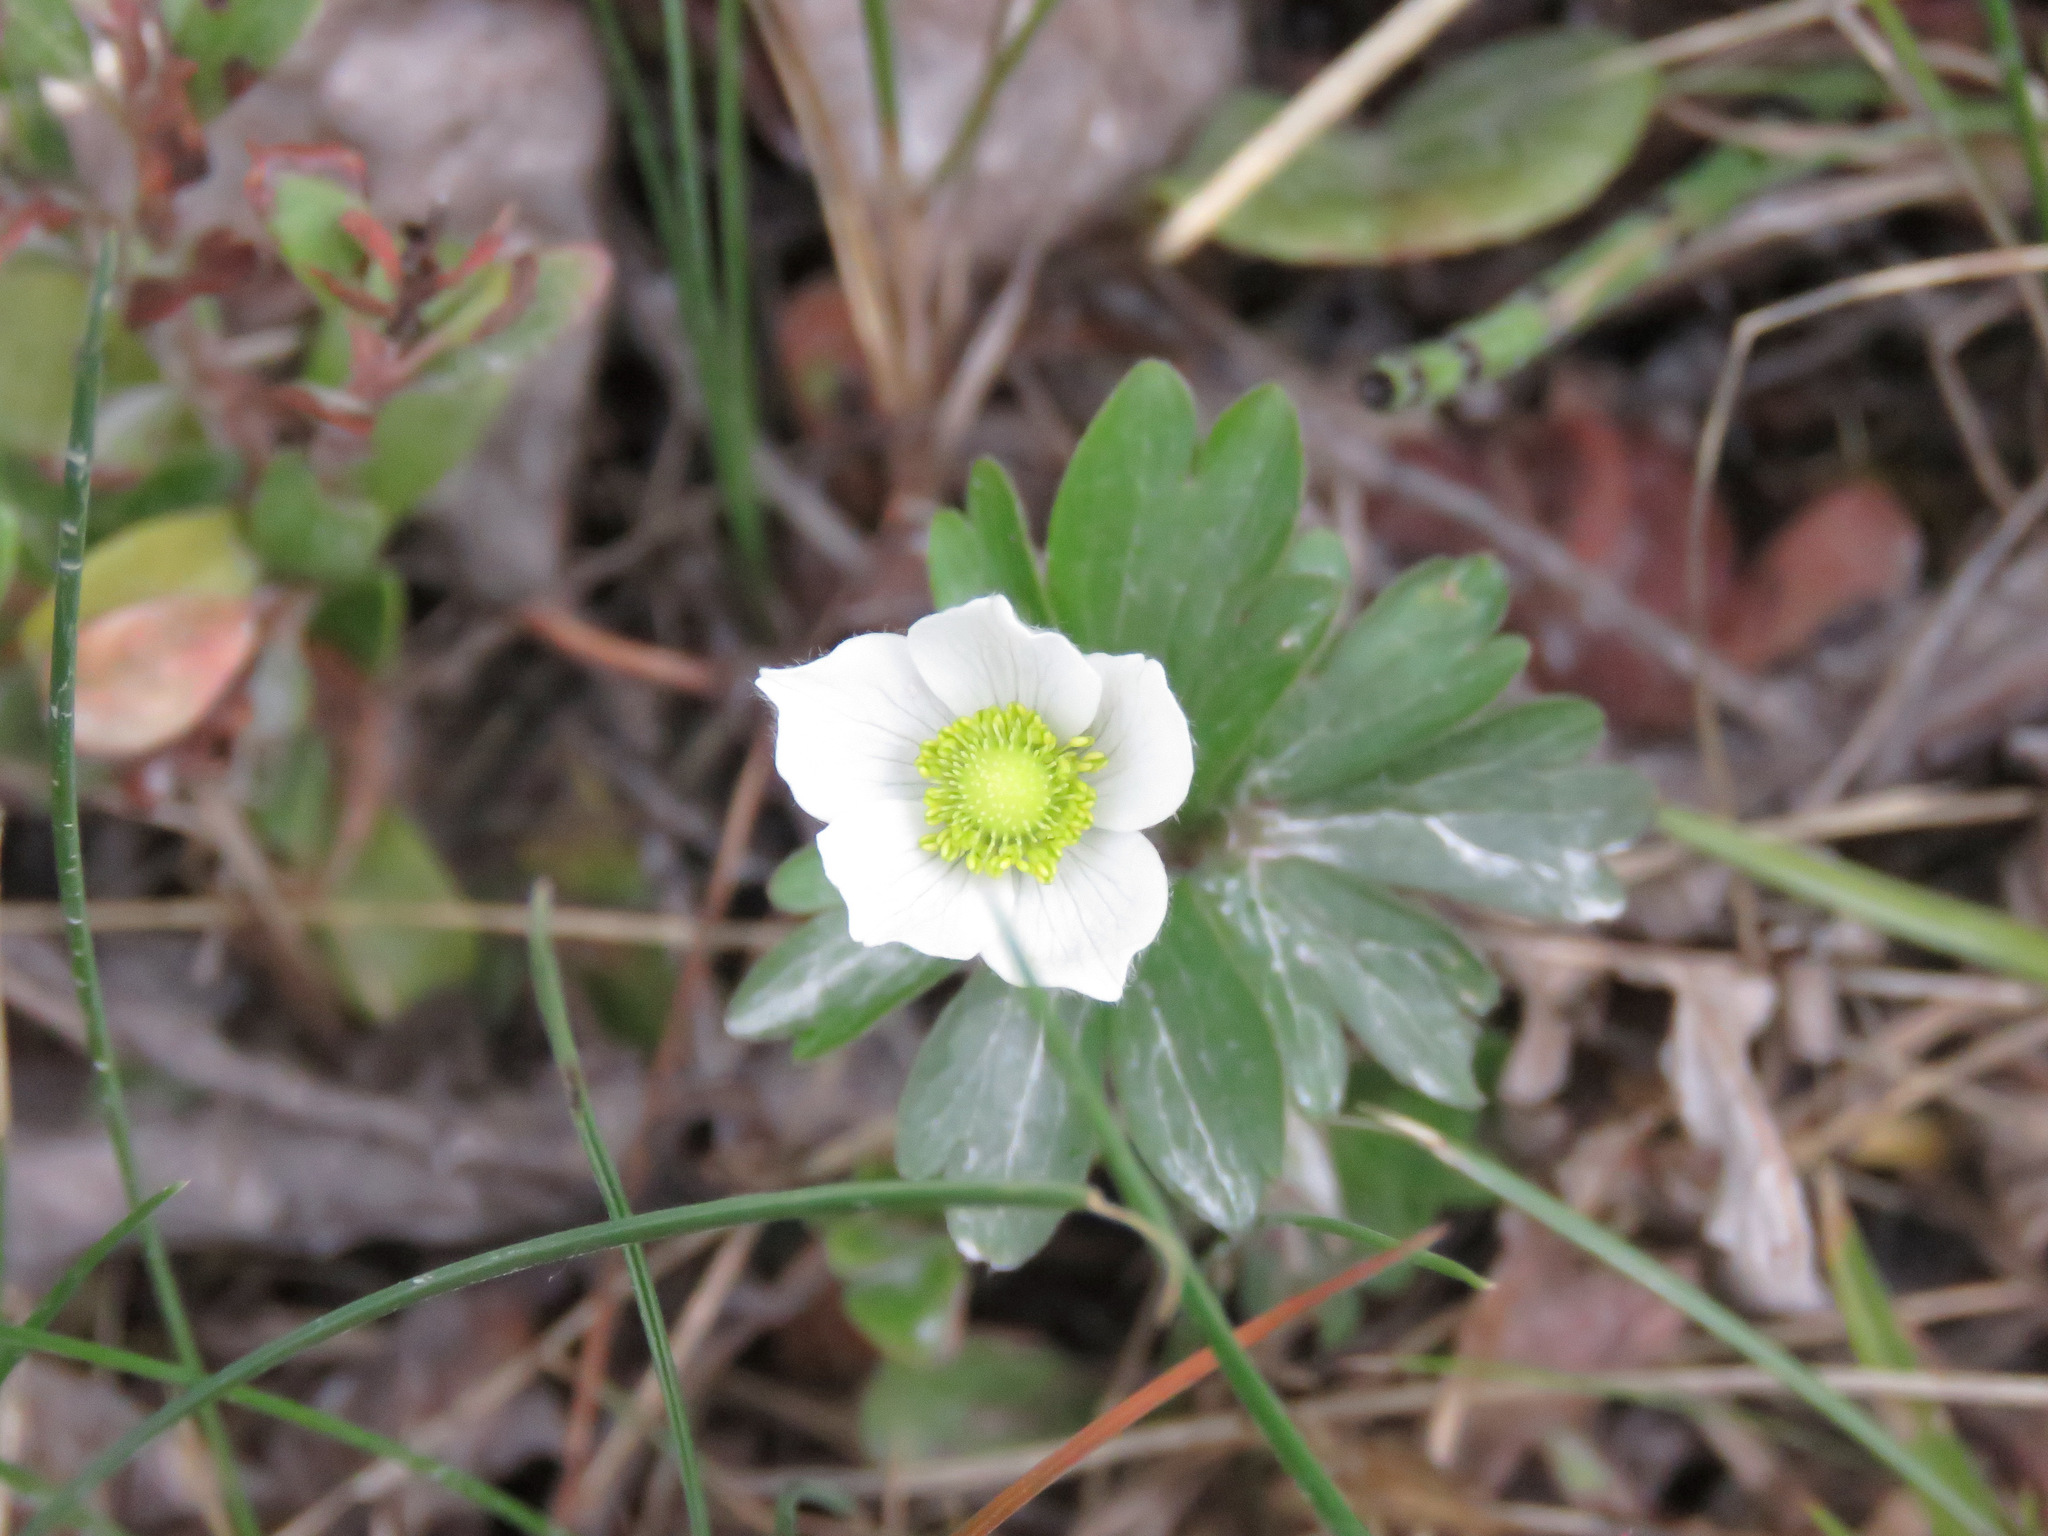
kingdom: Plantae
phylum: Tracheophyta
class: Magnoliopsida
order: Ranunculales
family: Ranunculaceae
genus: Anemone
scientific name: Anemone parviflora
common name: Northern anemone
